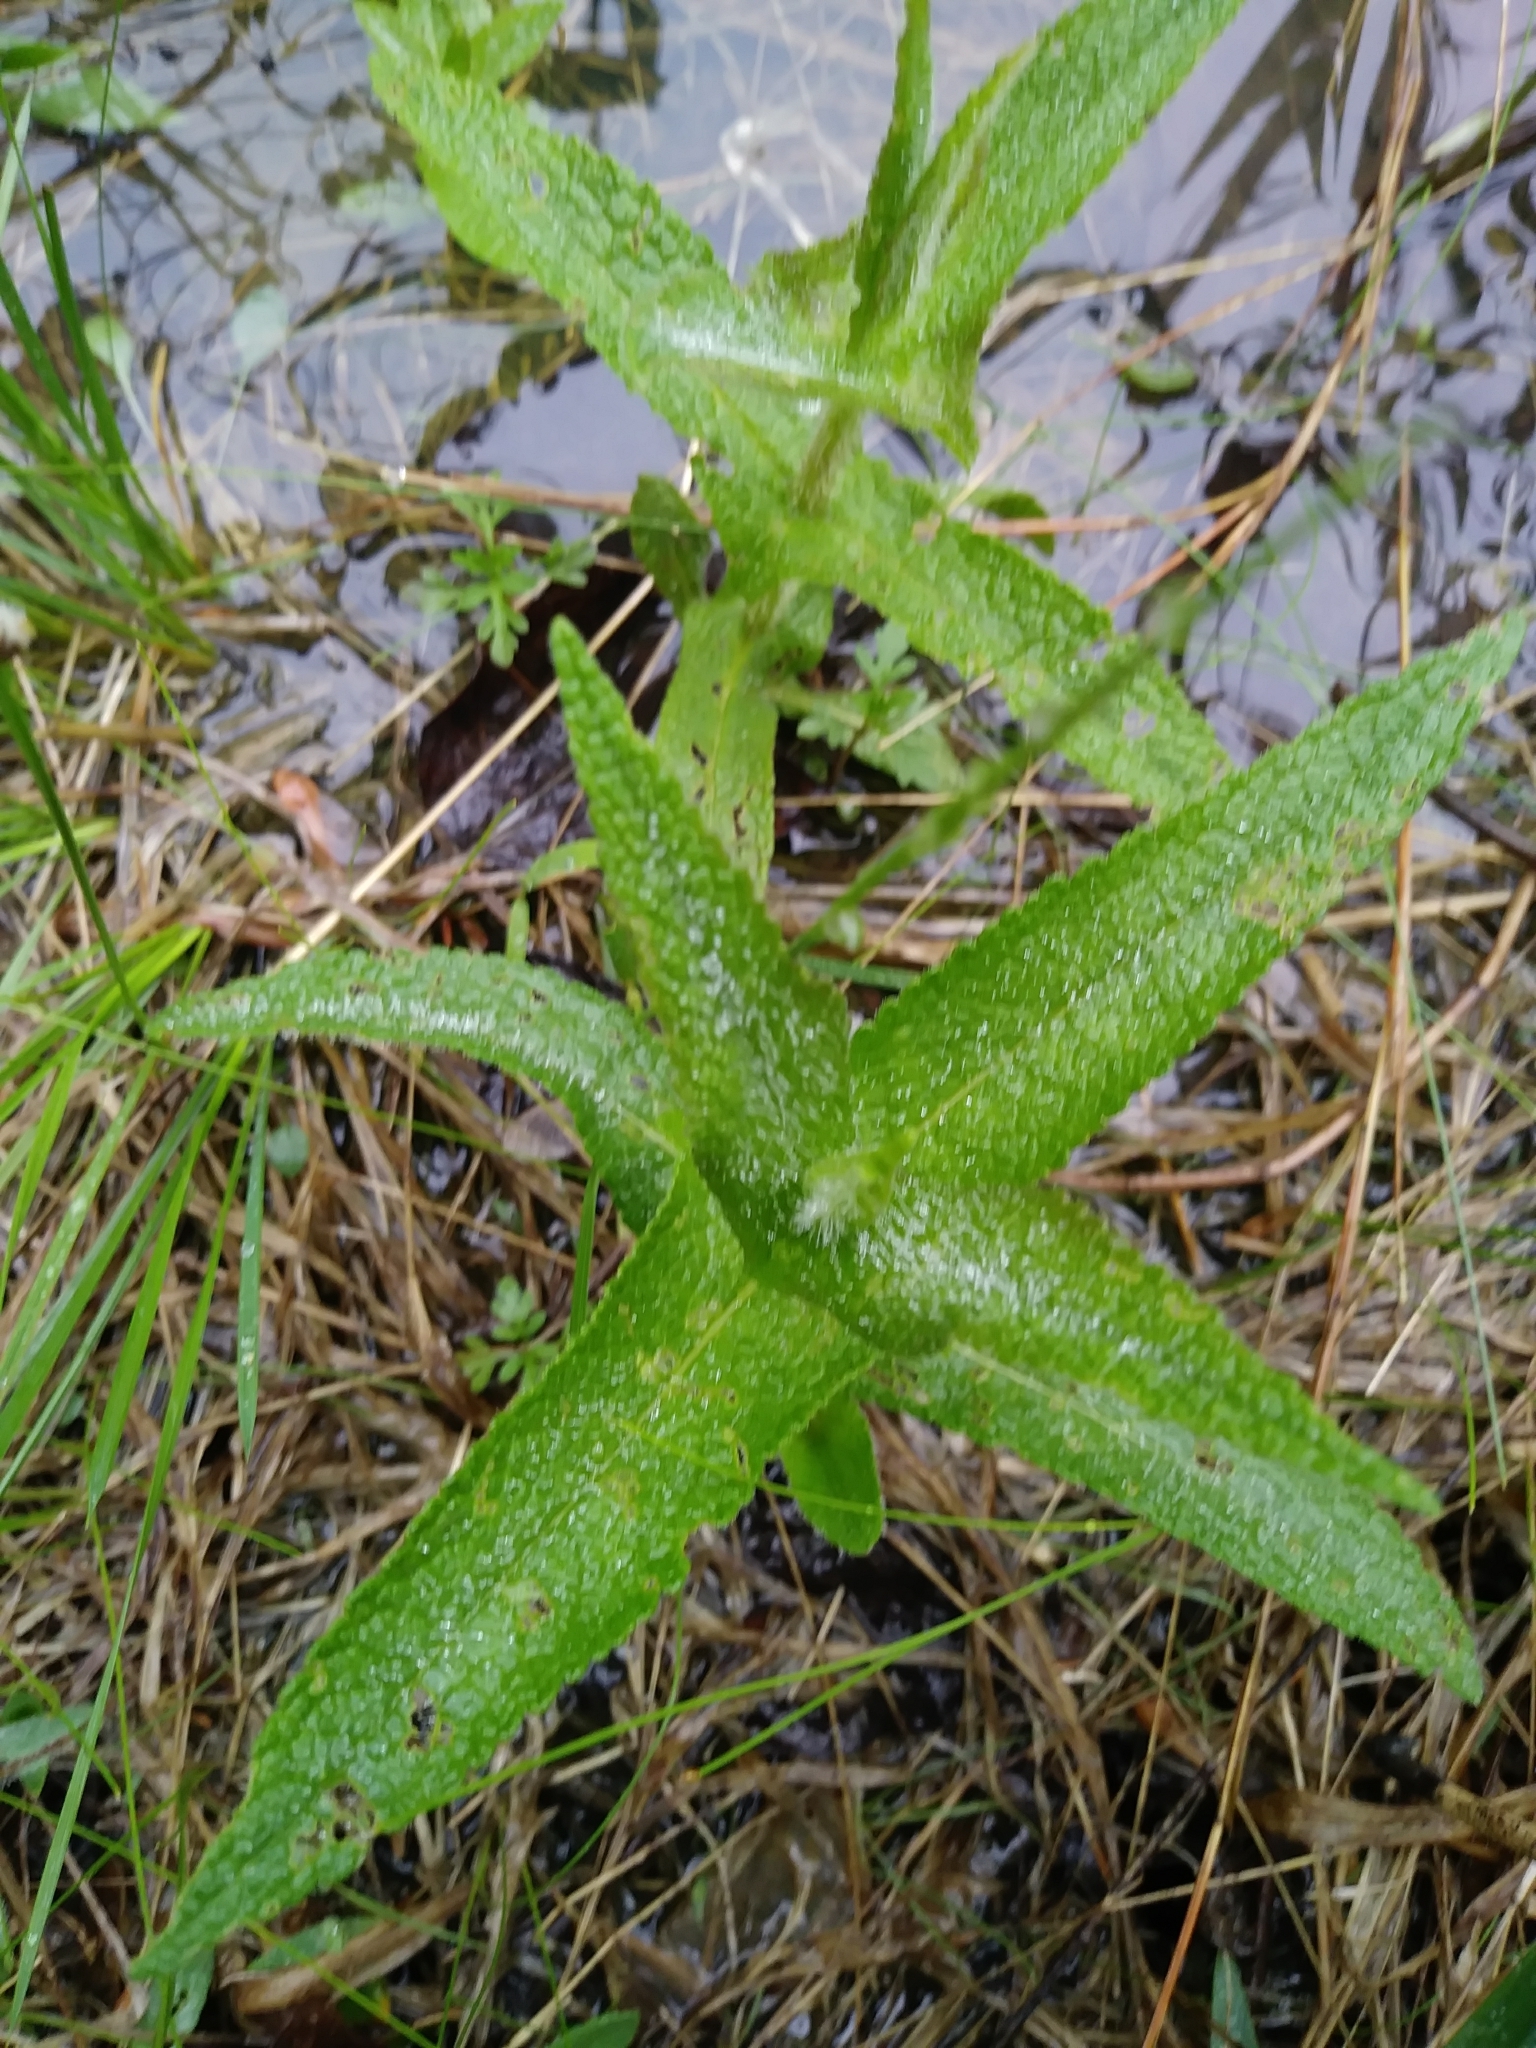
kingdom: Plantae
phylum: Tracheophyta
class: Magnoliopsida
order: Asterales
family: Asteraceae
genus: Eupatorium
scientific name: Eupatorium perfoliatum
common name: Boneset
